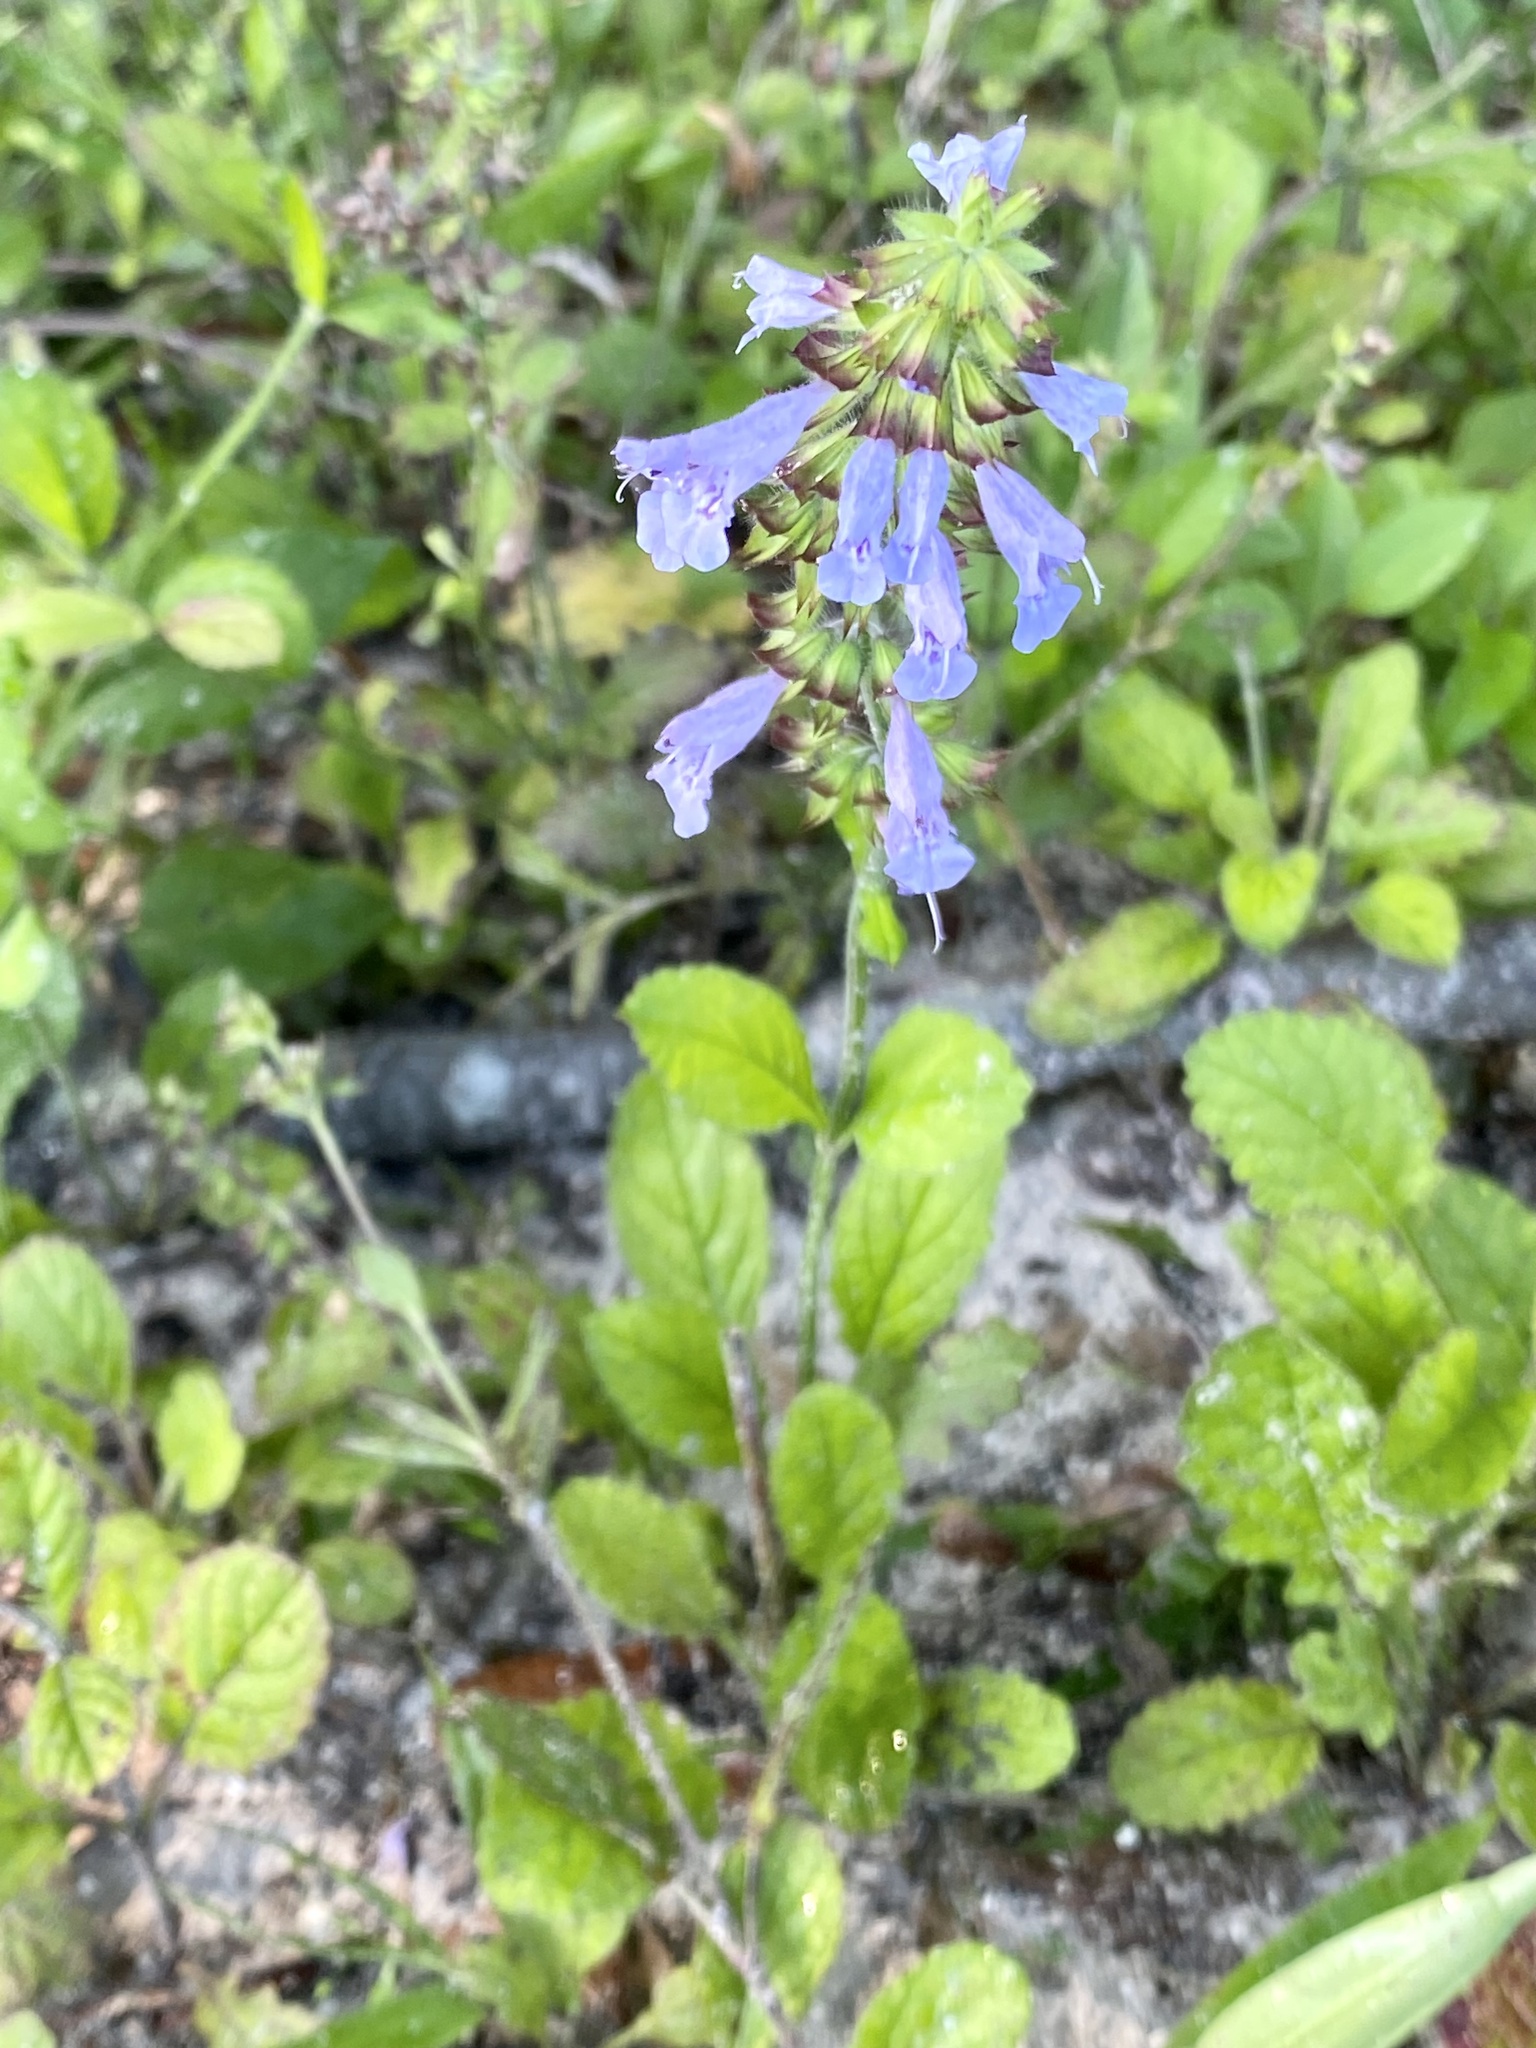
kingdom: Plantae
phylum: Tracheophyta
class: Magnoliopsida
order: Lamiales
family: Lamiaceae
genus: Salvia
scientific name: Salvia lyrata
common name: Cancerweed
